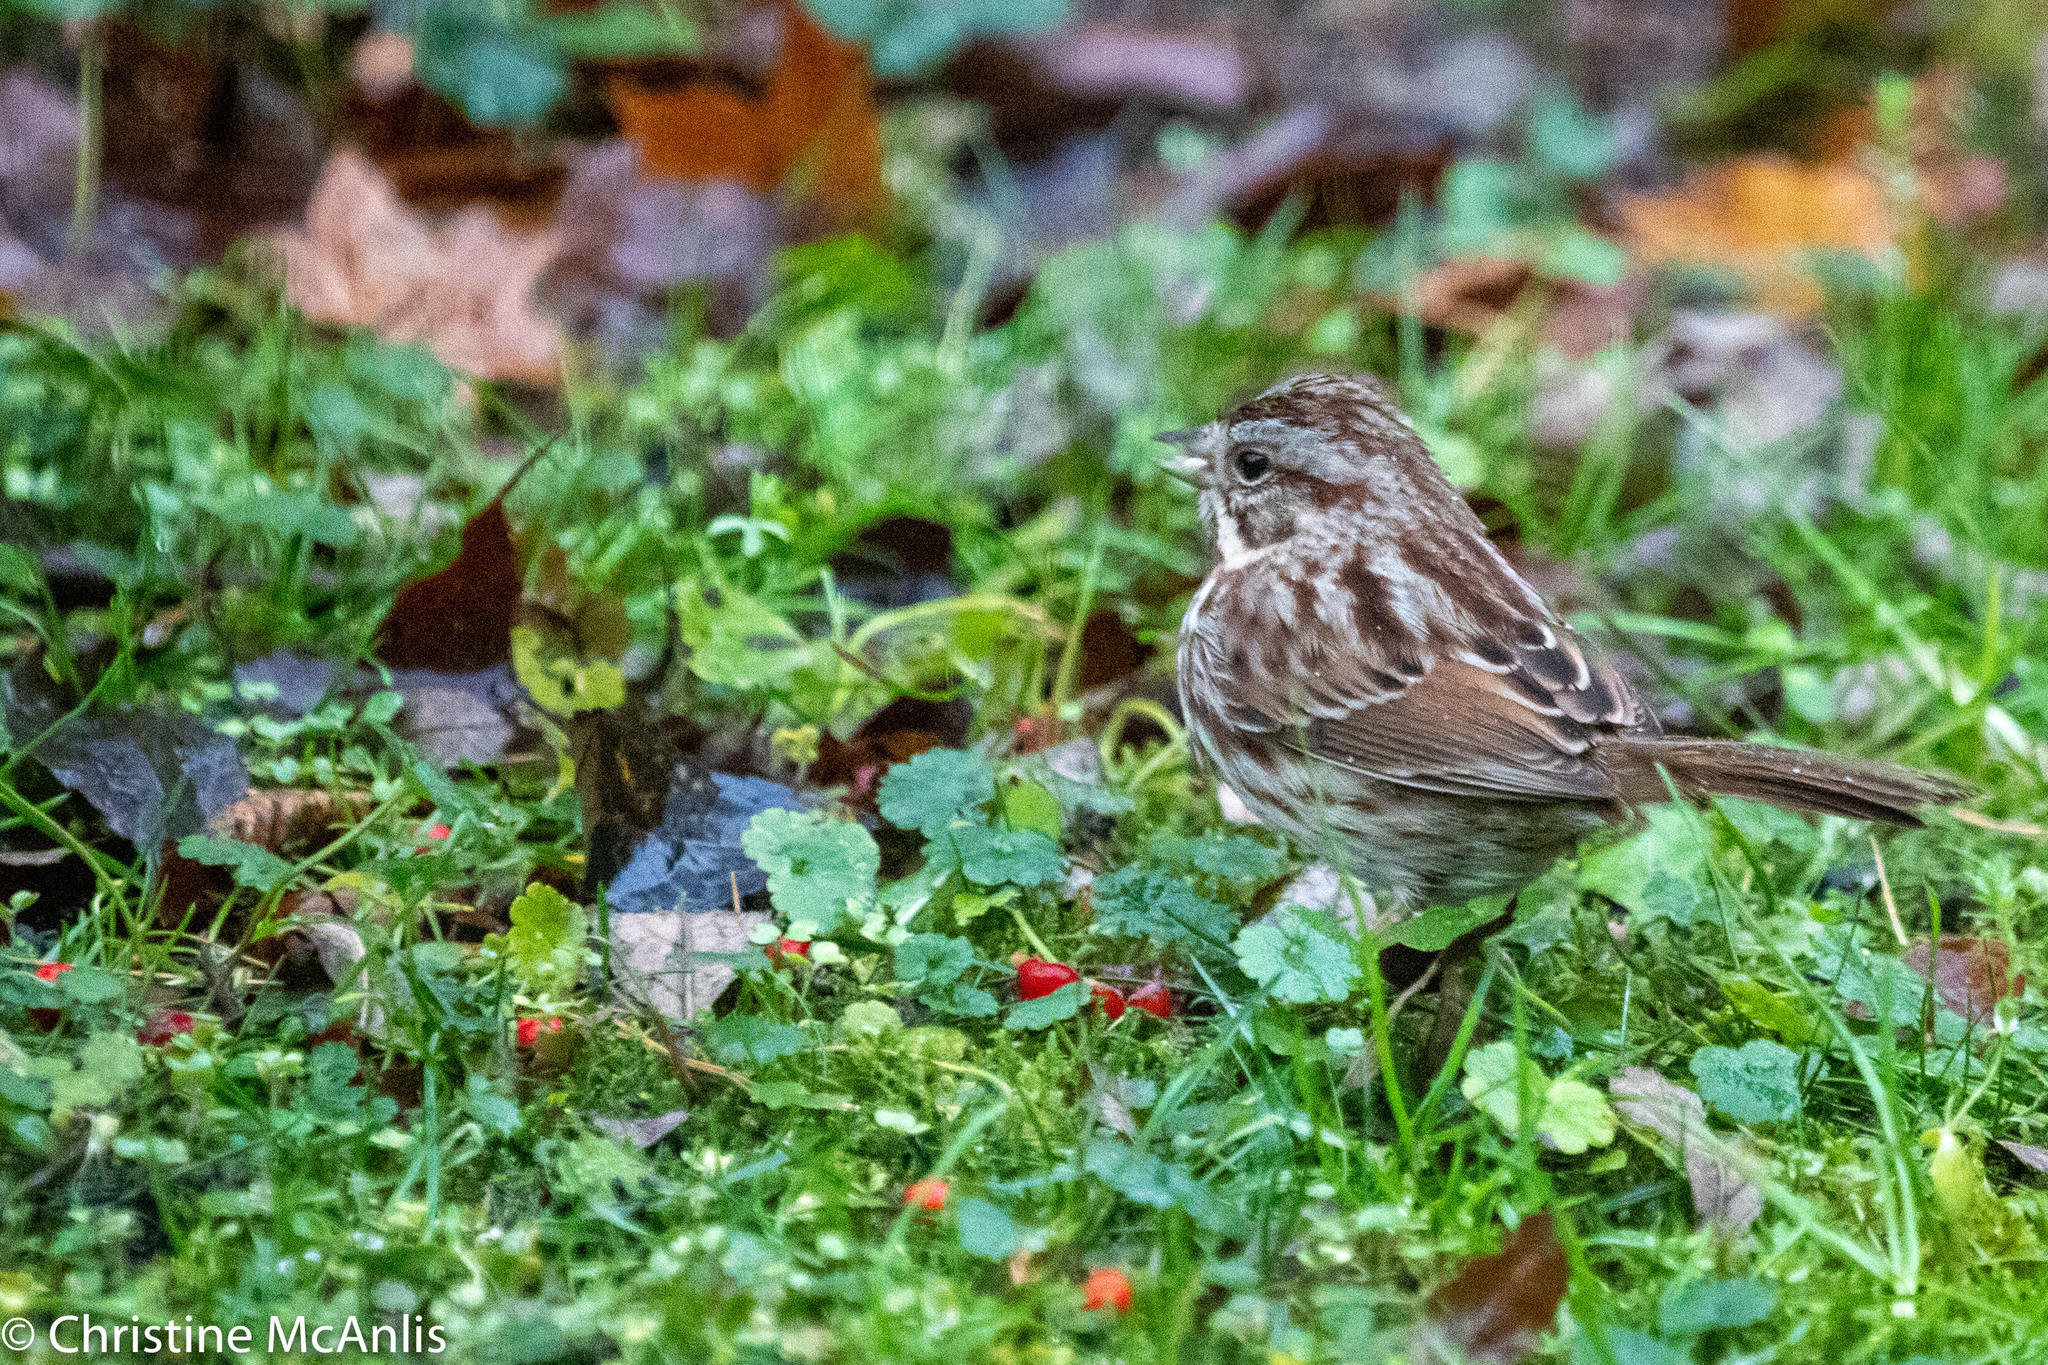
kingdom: Animalia
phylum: Chordata
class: Aves
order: Passeriformes
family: Passerellidae
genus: Melospiza
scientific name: Melospiza melodia
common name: Song sparrow
